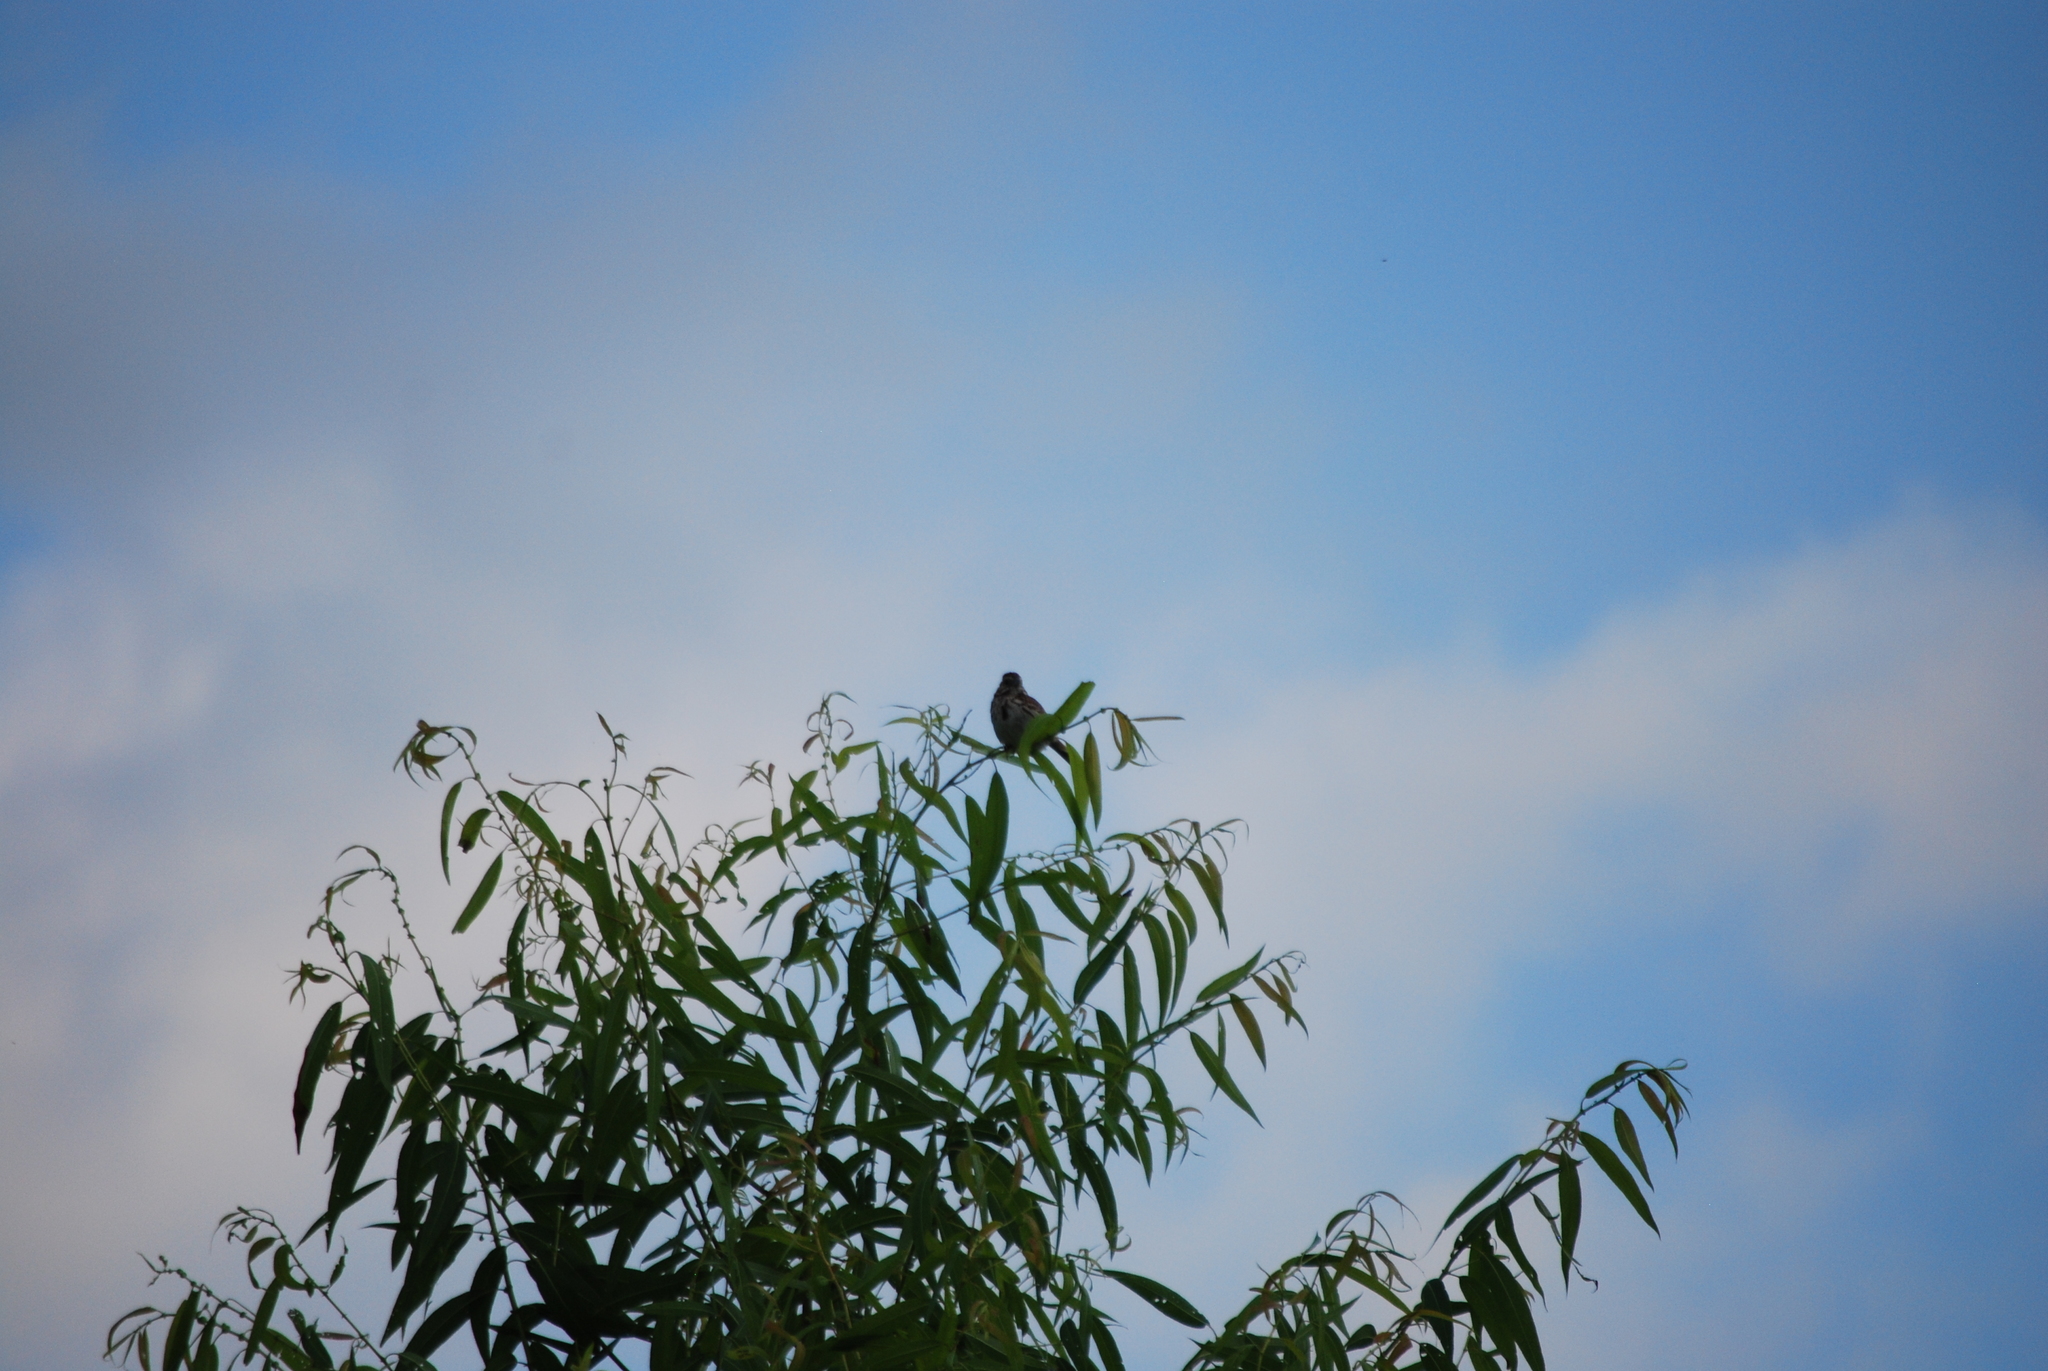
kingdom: Animalia
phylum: Chordata
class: Aves
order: Passeriformes
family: Passerellidae
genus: Melospiza
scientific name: Melospiza melodia
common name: Song sparrow
